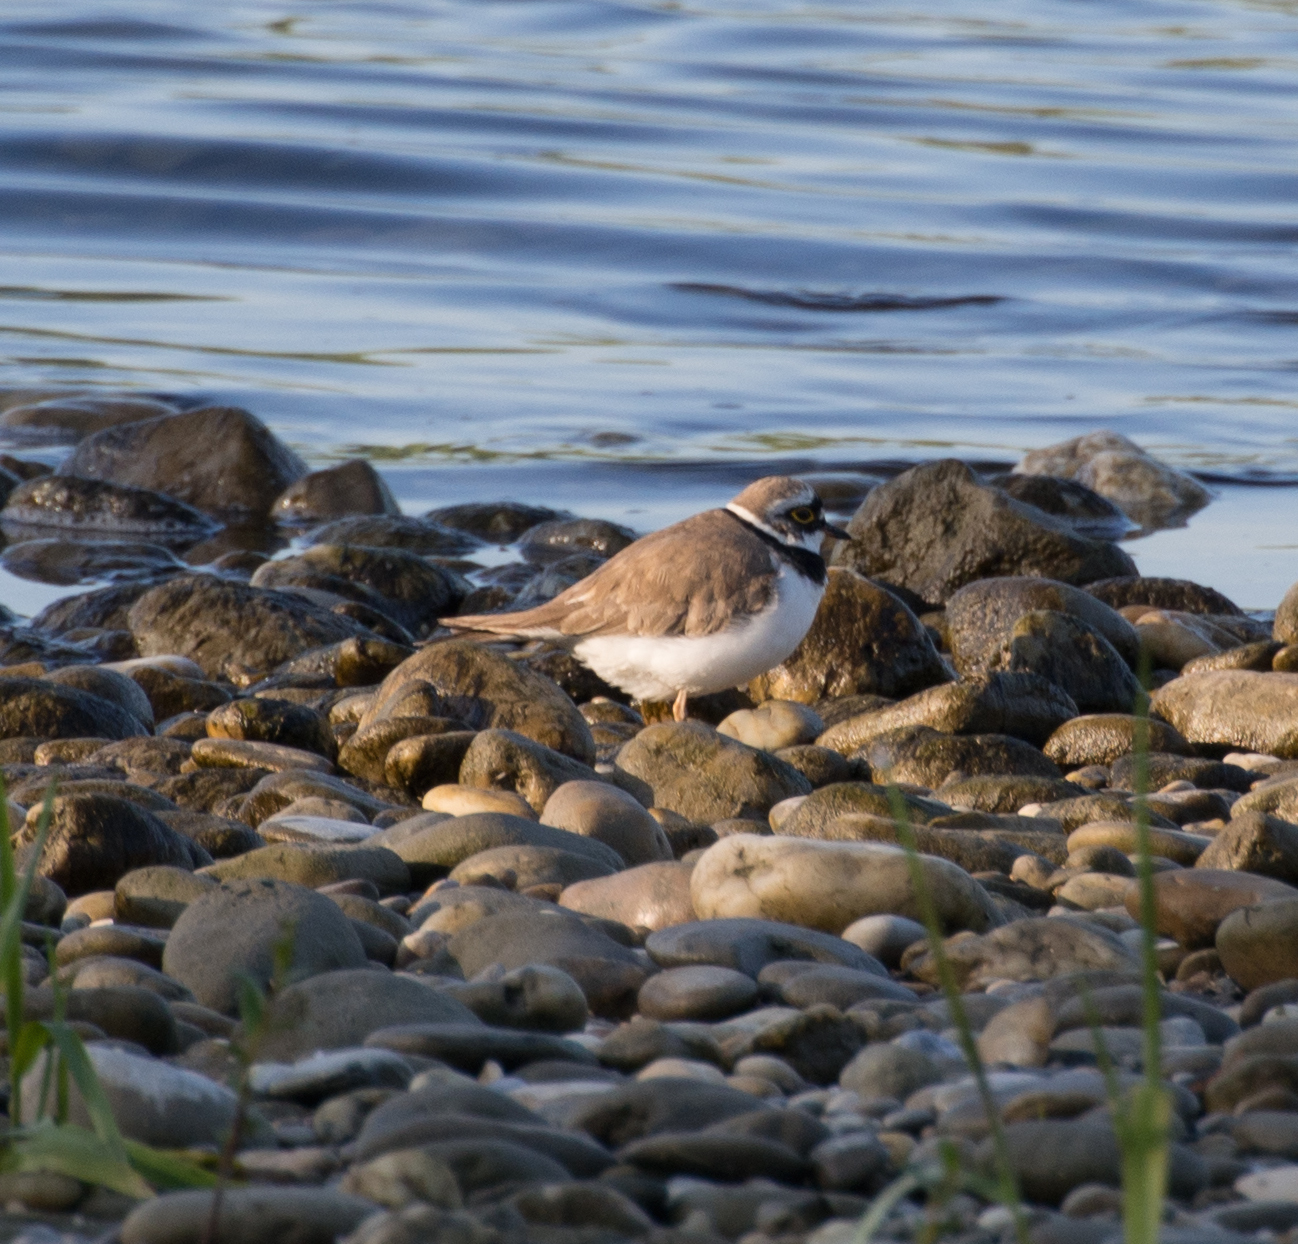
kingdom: Animalia
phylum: Chordata
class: Aves
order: Charadriiformes
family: Charadriidae
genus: Charadrius
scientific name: Charadrius dubius
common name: Little ringed plover
